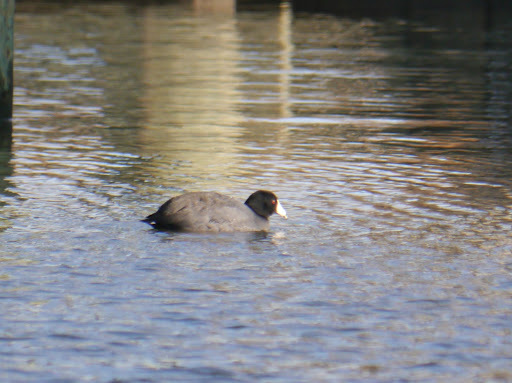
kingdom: Animalia
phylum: Chordata
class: Aves
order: Gruiformes
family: Rallidae
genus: Fulica
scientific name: Fulica americana
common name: American coot
